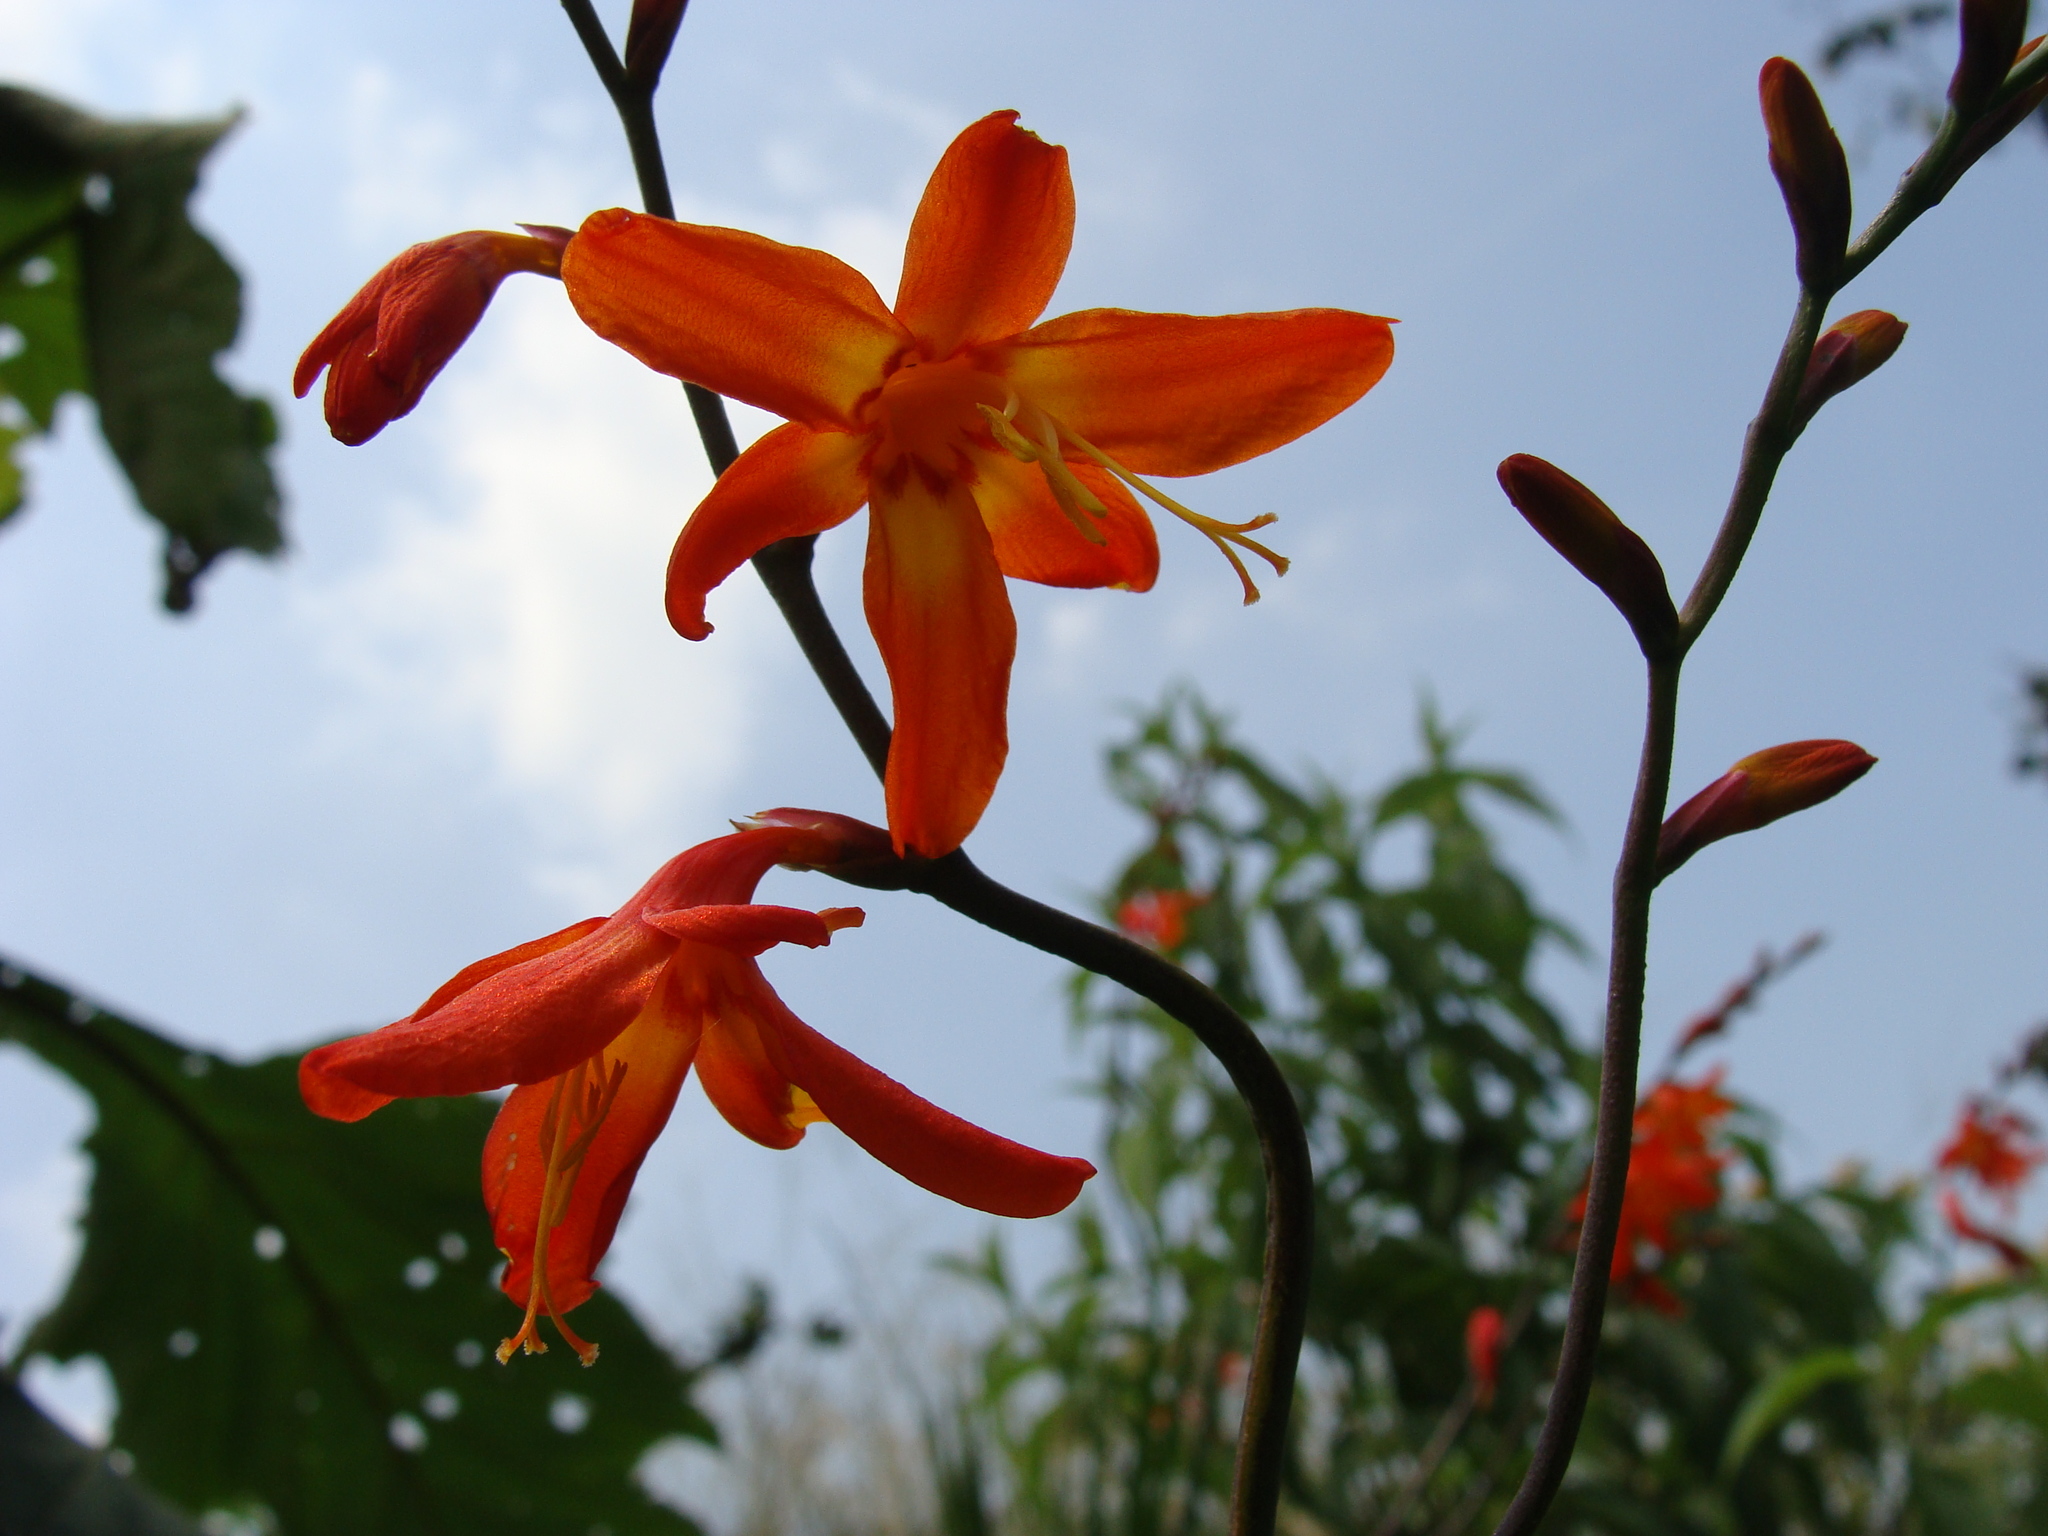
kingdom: Plantae
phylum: Tracheophyta
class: Liliopsida
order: Asparagales
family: Iridaceae
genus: Crocosmia
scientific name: Crocosmia crocosmiiflora
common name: Montbretia
